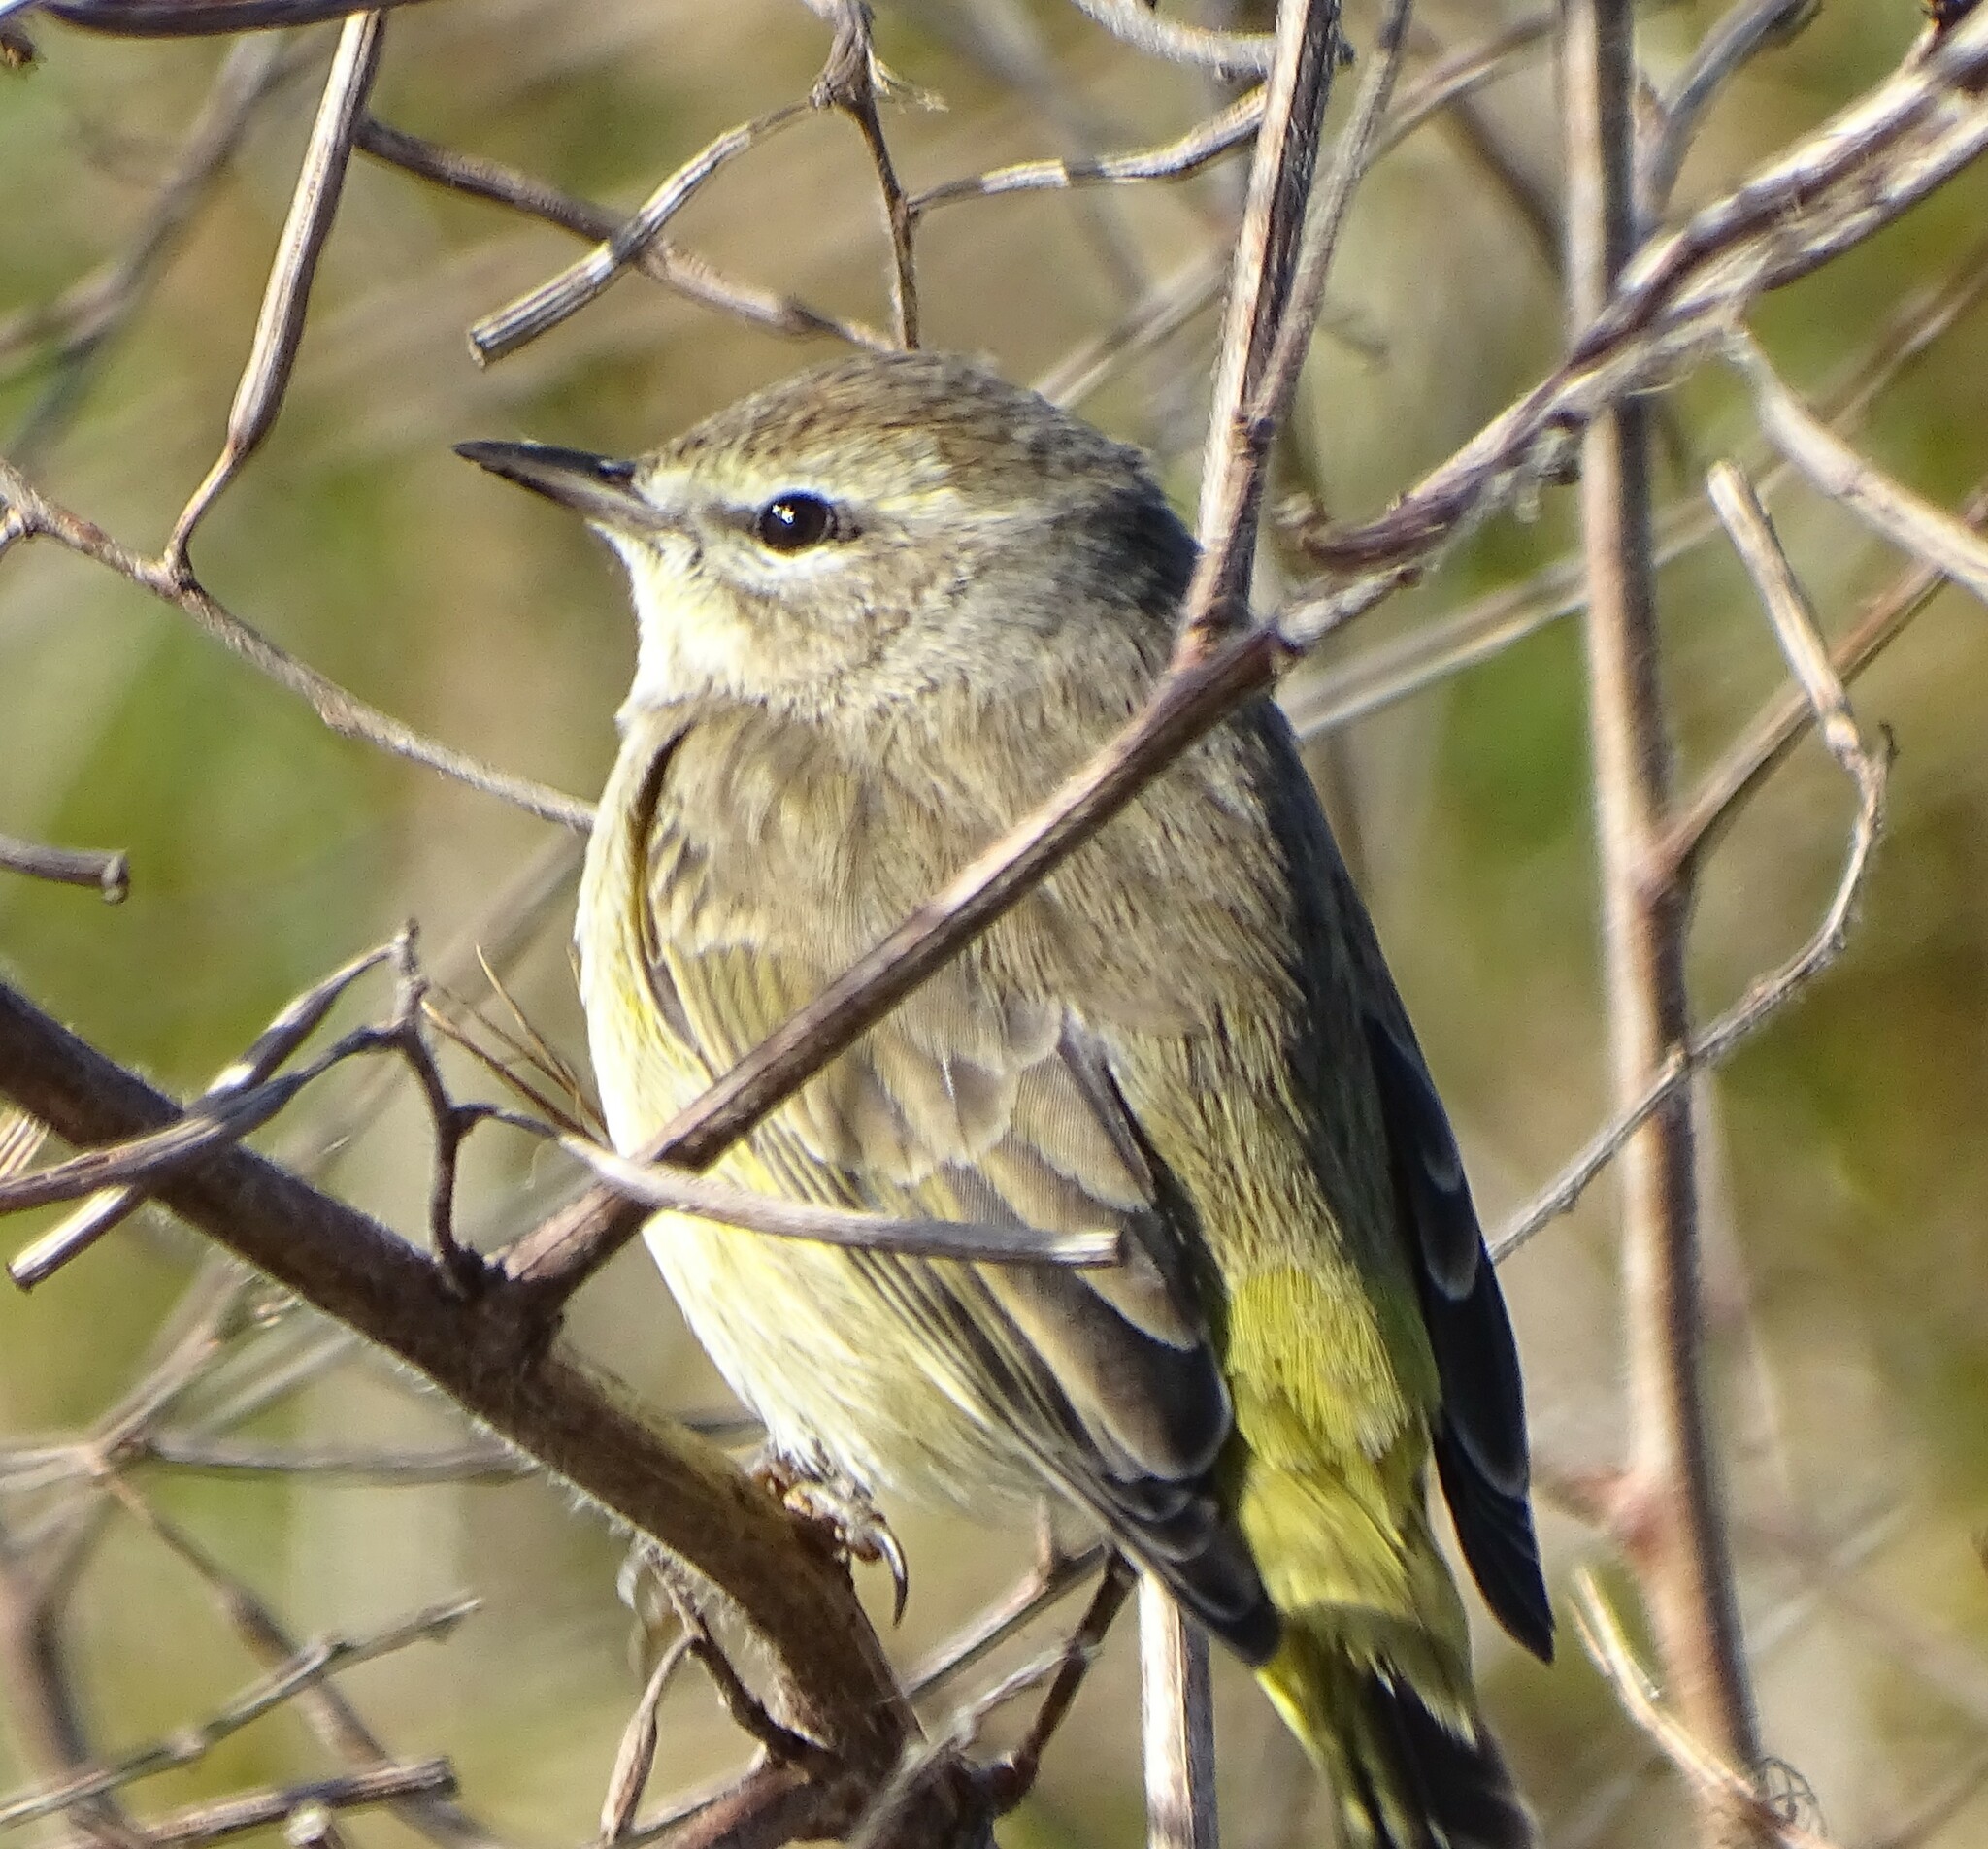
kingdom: Animalia
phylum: Chordata
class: Aves
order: Passeriformes
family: Parulidae
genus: Setophaga
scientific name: Setophaga palmarum
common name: Palm warbler
